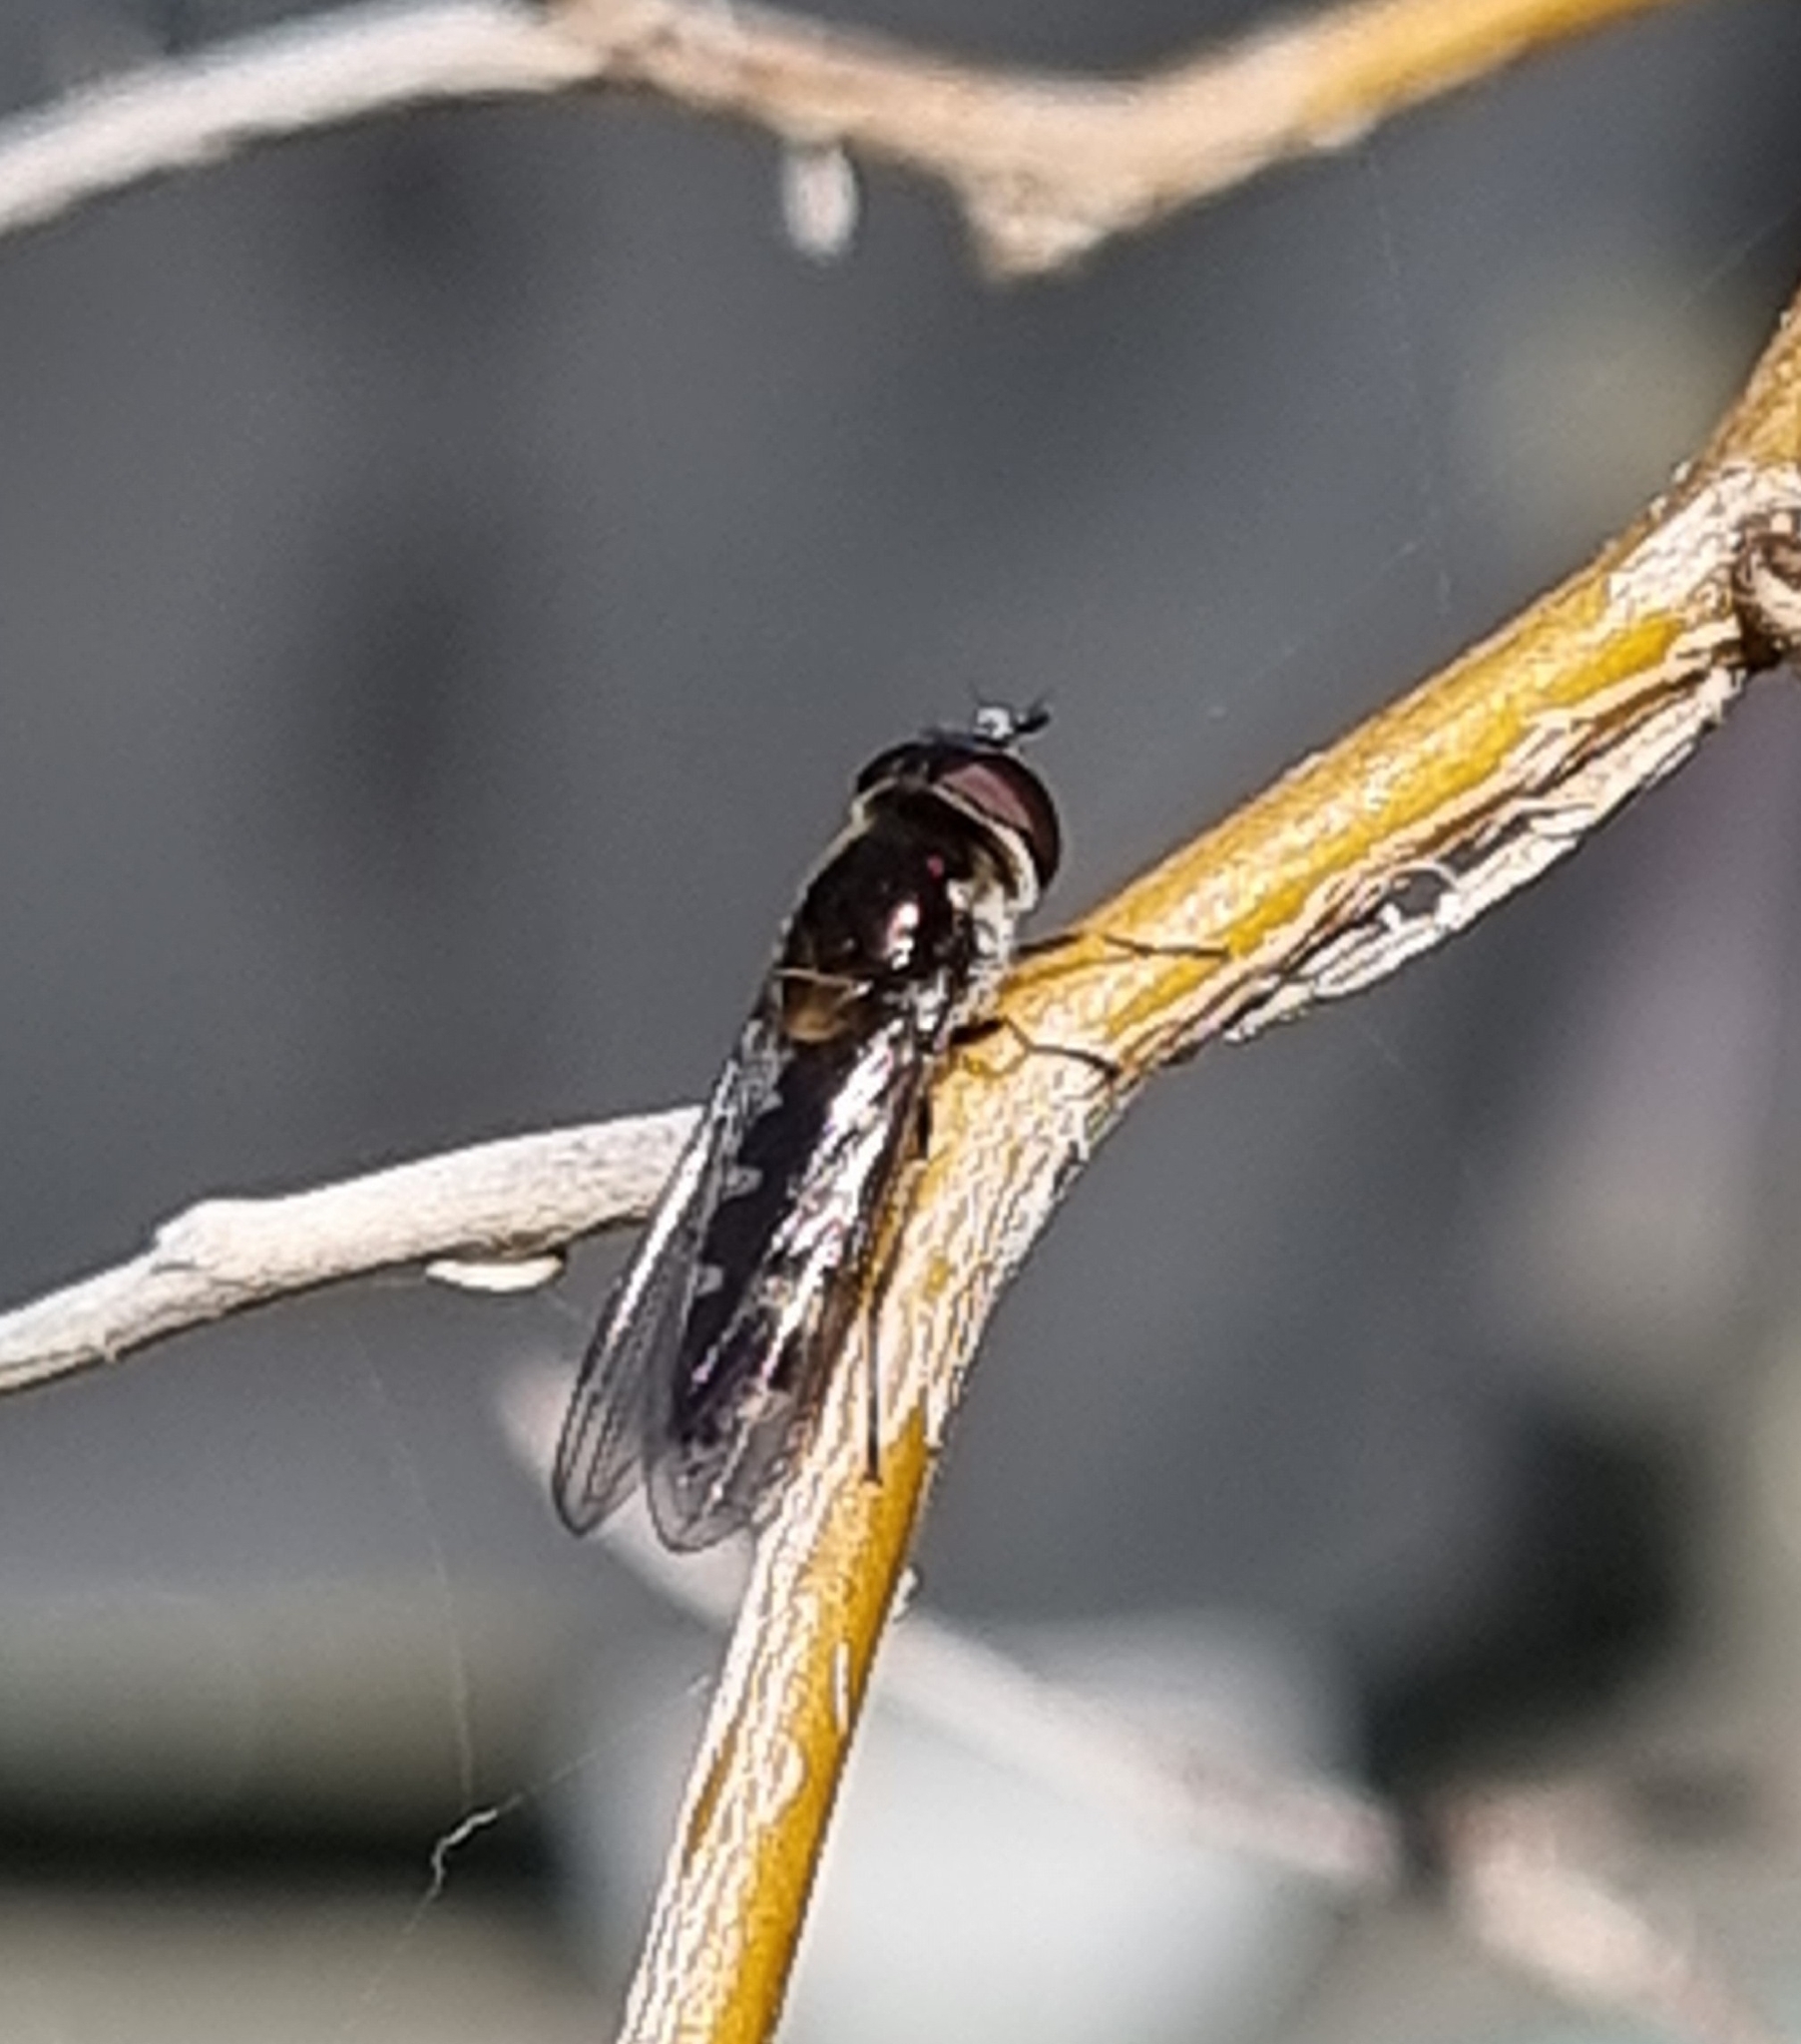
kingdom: Animalia
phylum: Arthropoda
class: Insecta
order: Diptera
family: Syrphidae
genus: Melangyna
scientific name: Melangyna novaezelandiae
